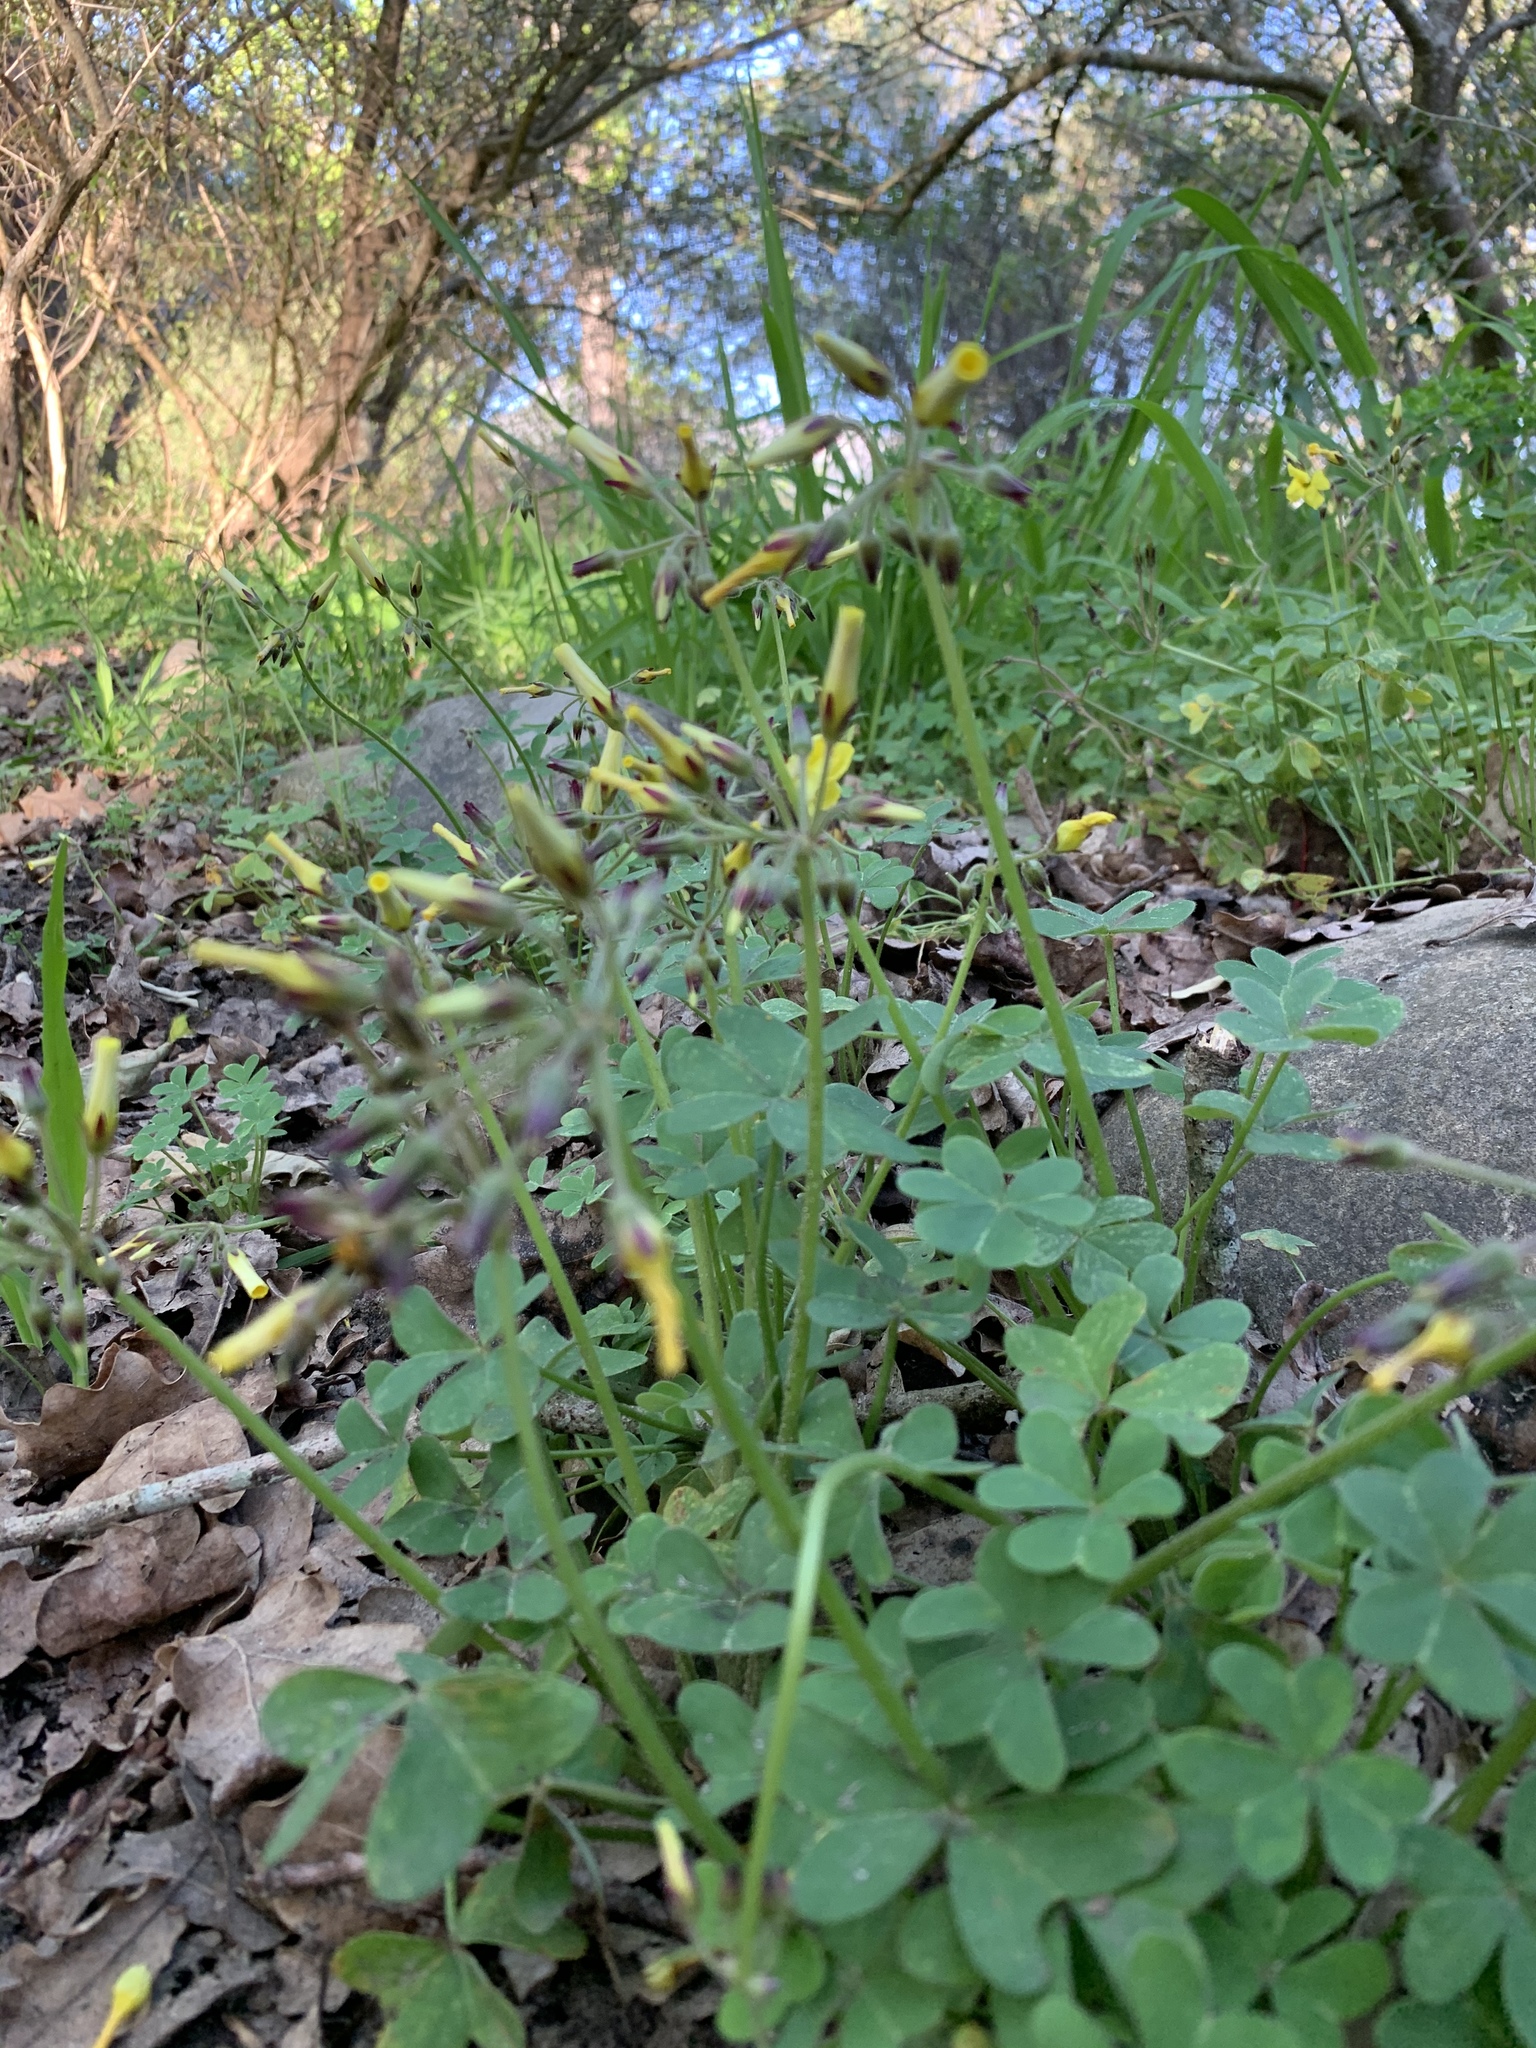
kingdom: Plantae
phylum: Tracheophyta
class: Magnoliopsida
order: Oxalidales
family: Oxalidaceae
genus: Oxalis
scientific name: Oxalis pes-caprae
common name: Bermuda-buttercup
